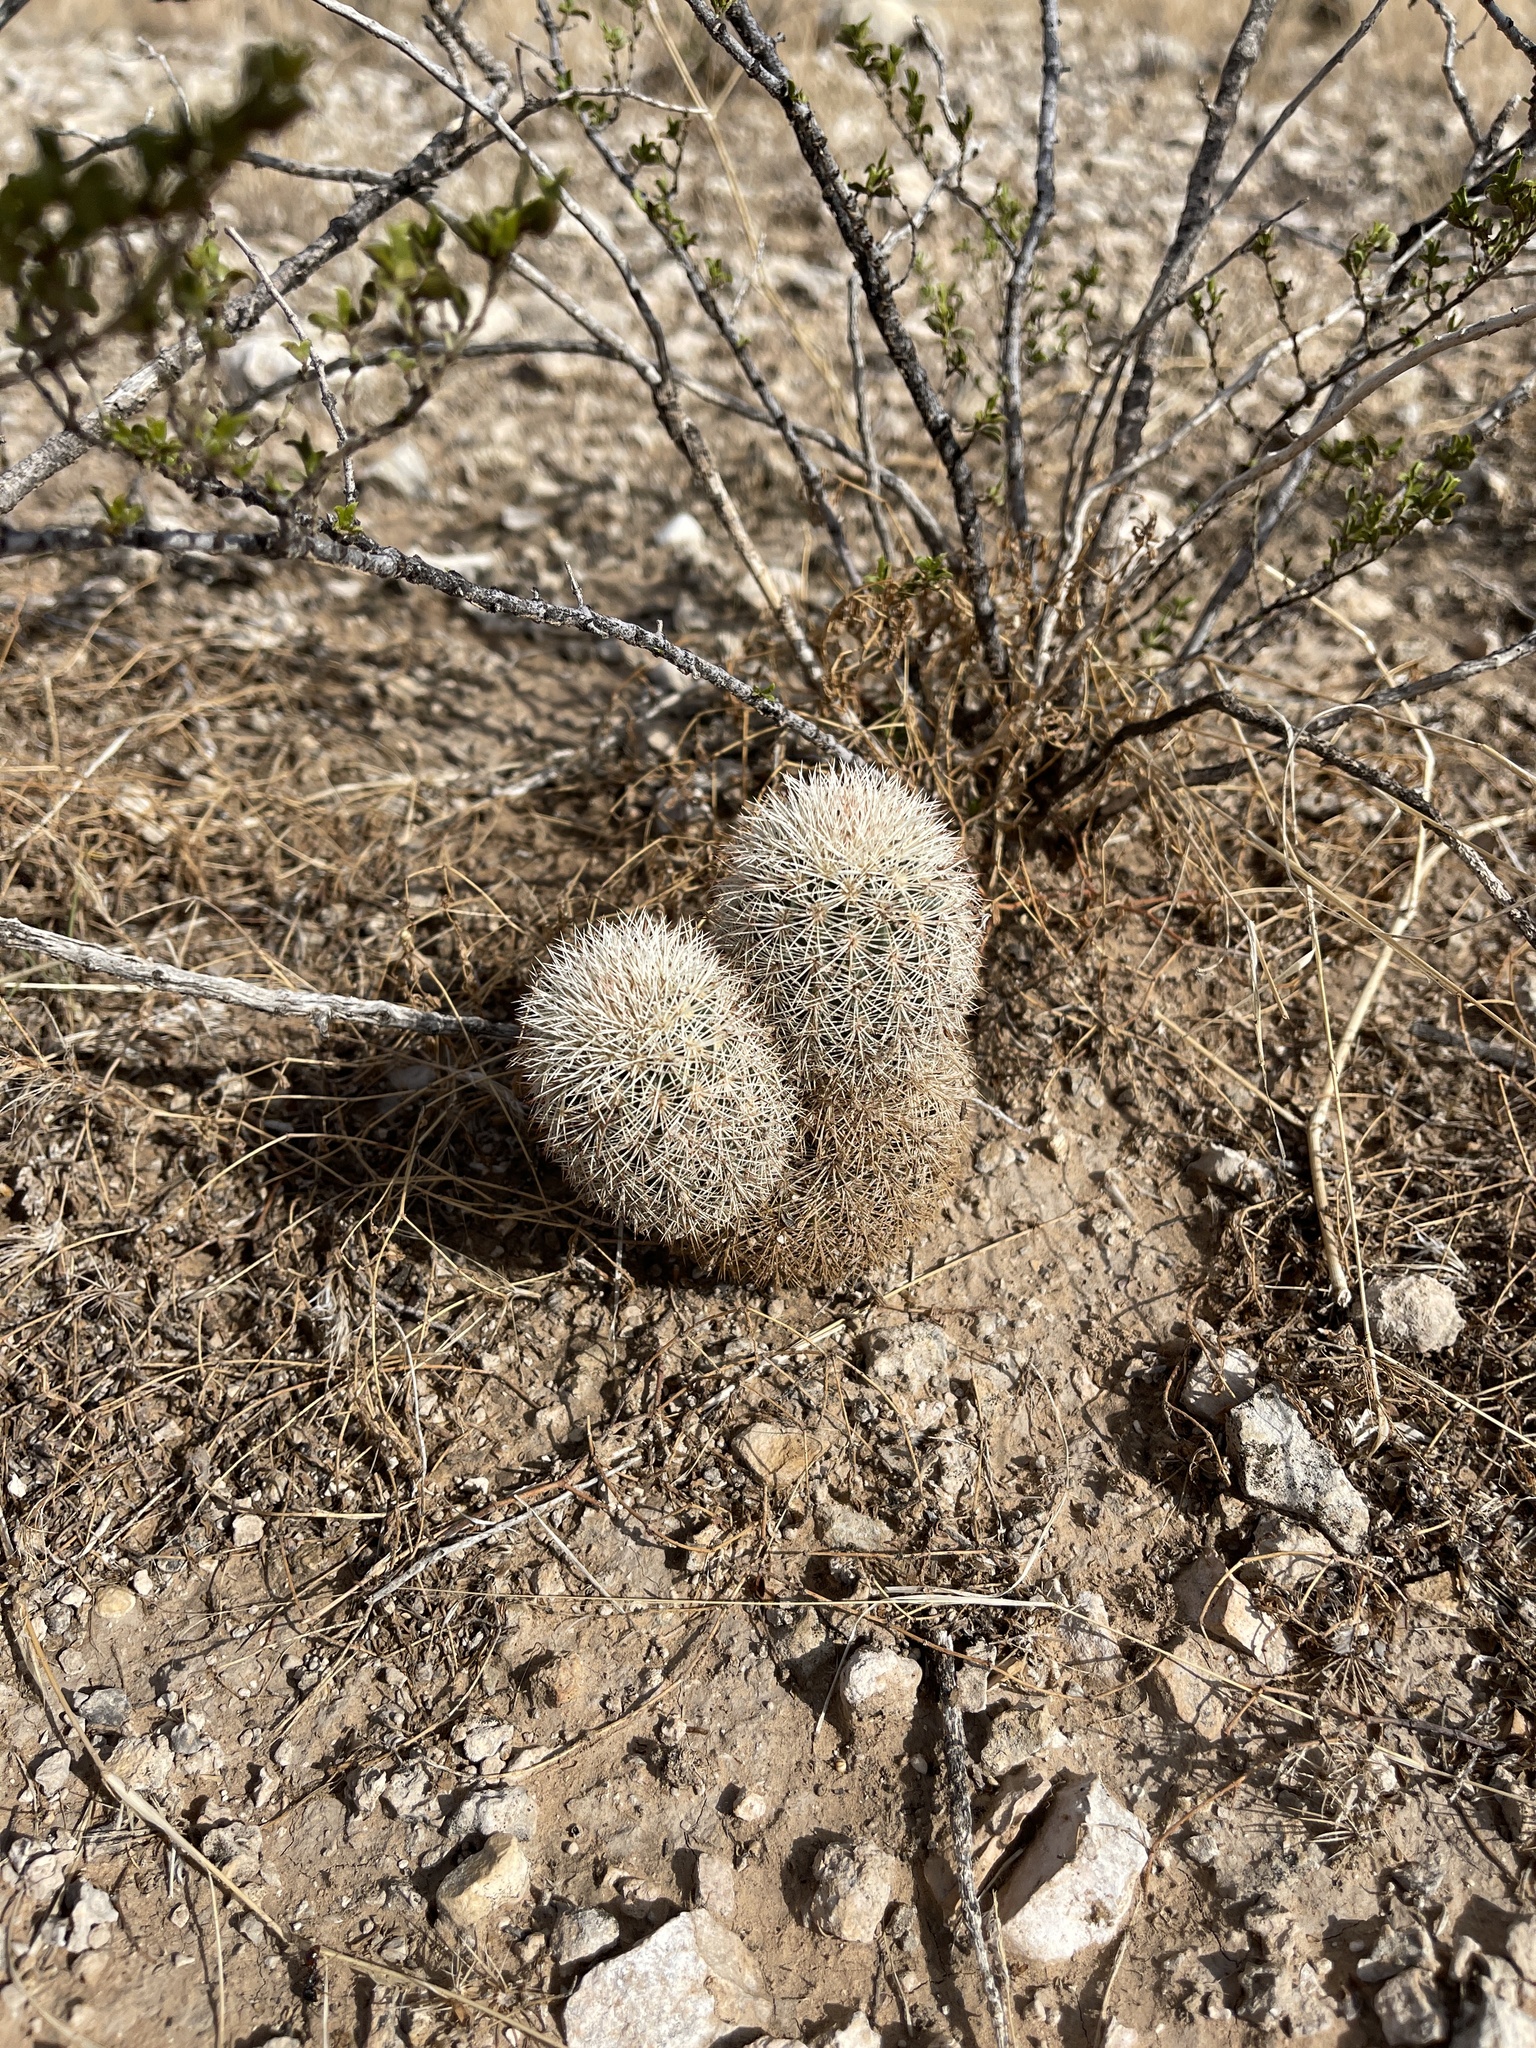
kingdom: Plantae
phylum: Tracheophyta
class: Magnoliopsida
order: Caryophyllales
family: Cactaceae
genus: Echinocereus
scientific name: Echinocereus dasyacanthus
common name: Spiny hedgehog cactus
